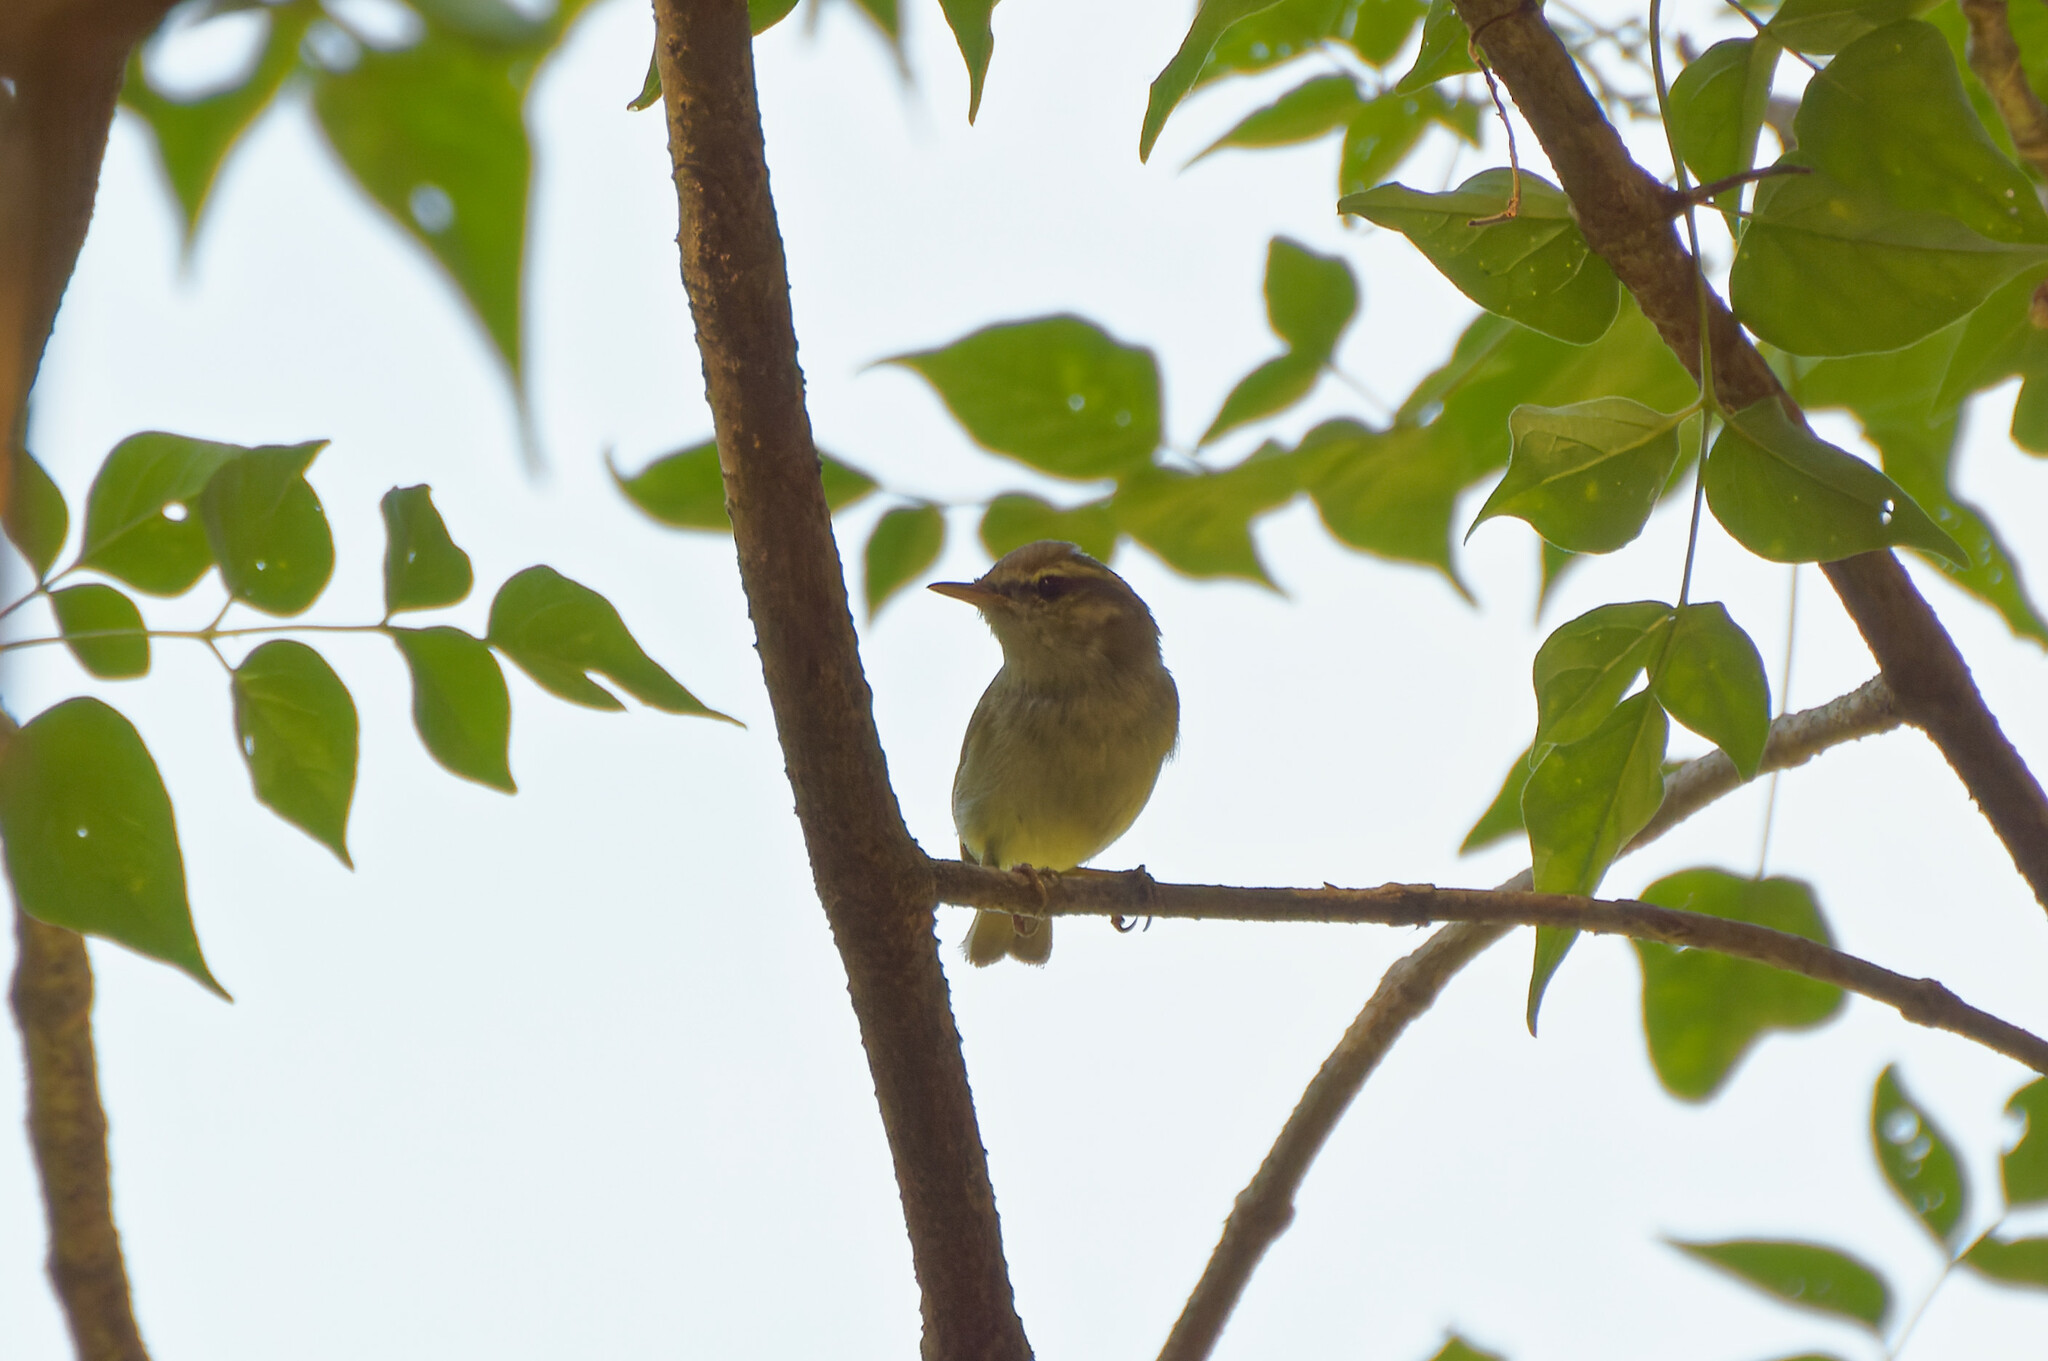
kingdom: Animalia
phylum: Chordata
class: Aves
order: Passeriformes
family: Phylloscopidae
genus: Phylloscopus
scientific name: Phylloscopus inornatus
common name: Yellow-browed warbler
